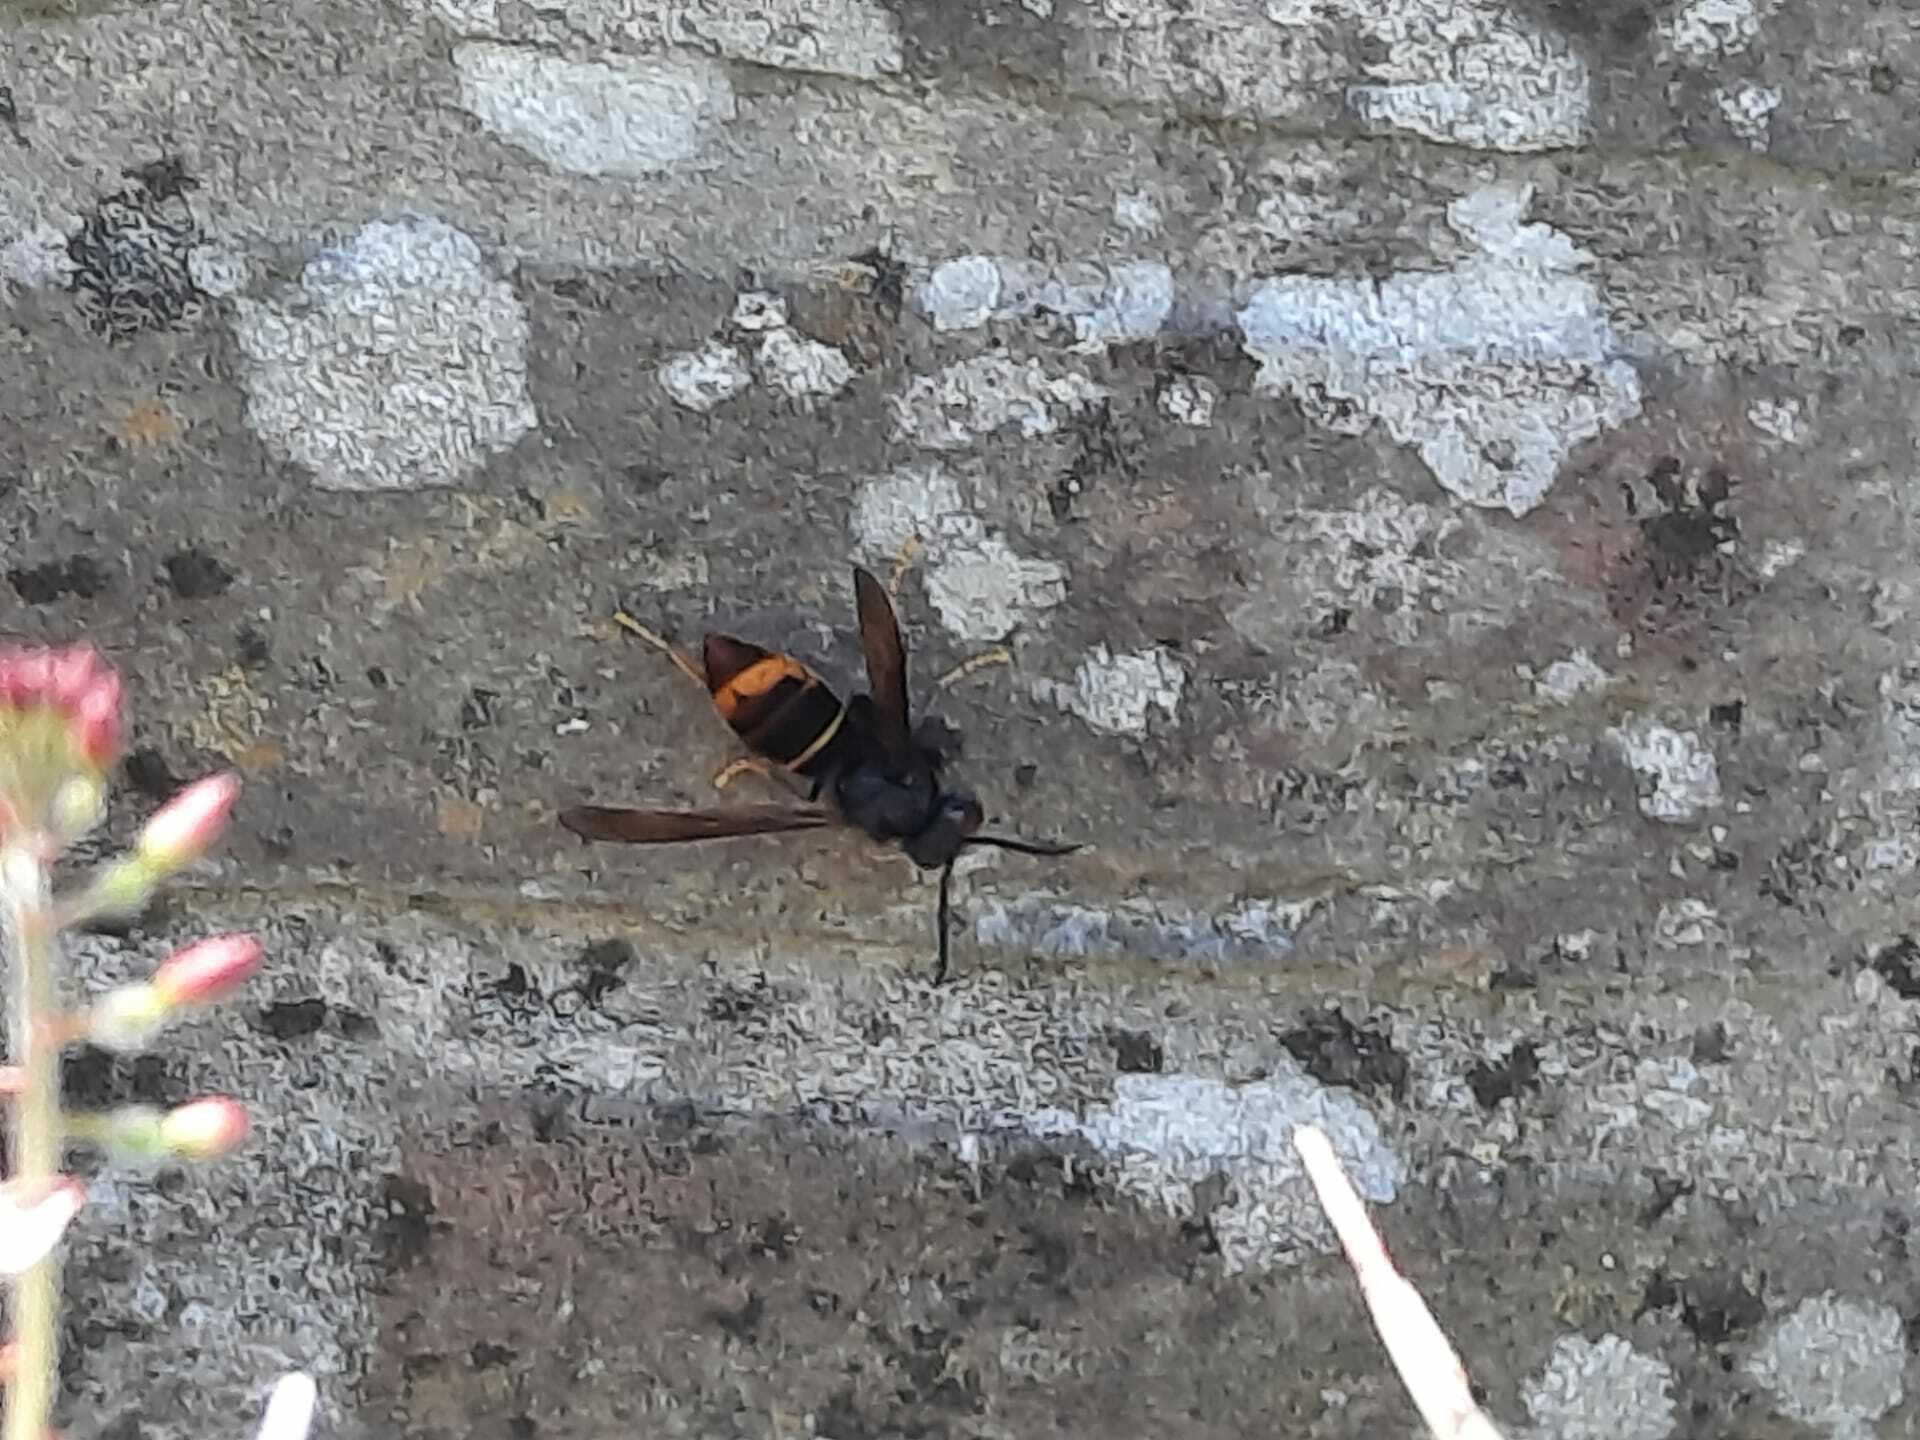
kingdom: Animalia
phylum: Arthropoda
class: Insecta
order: Hymenoptera
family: Vespidae
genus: Vespa
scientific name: Vespa velutina
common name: Asian hornet
